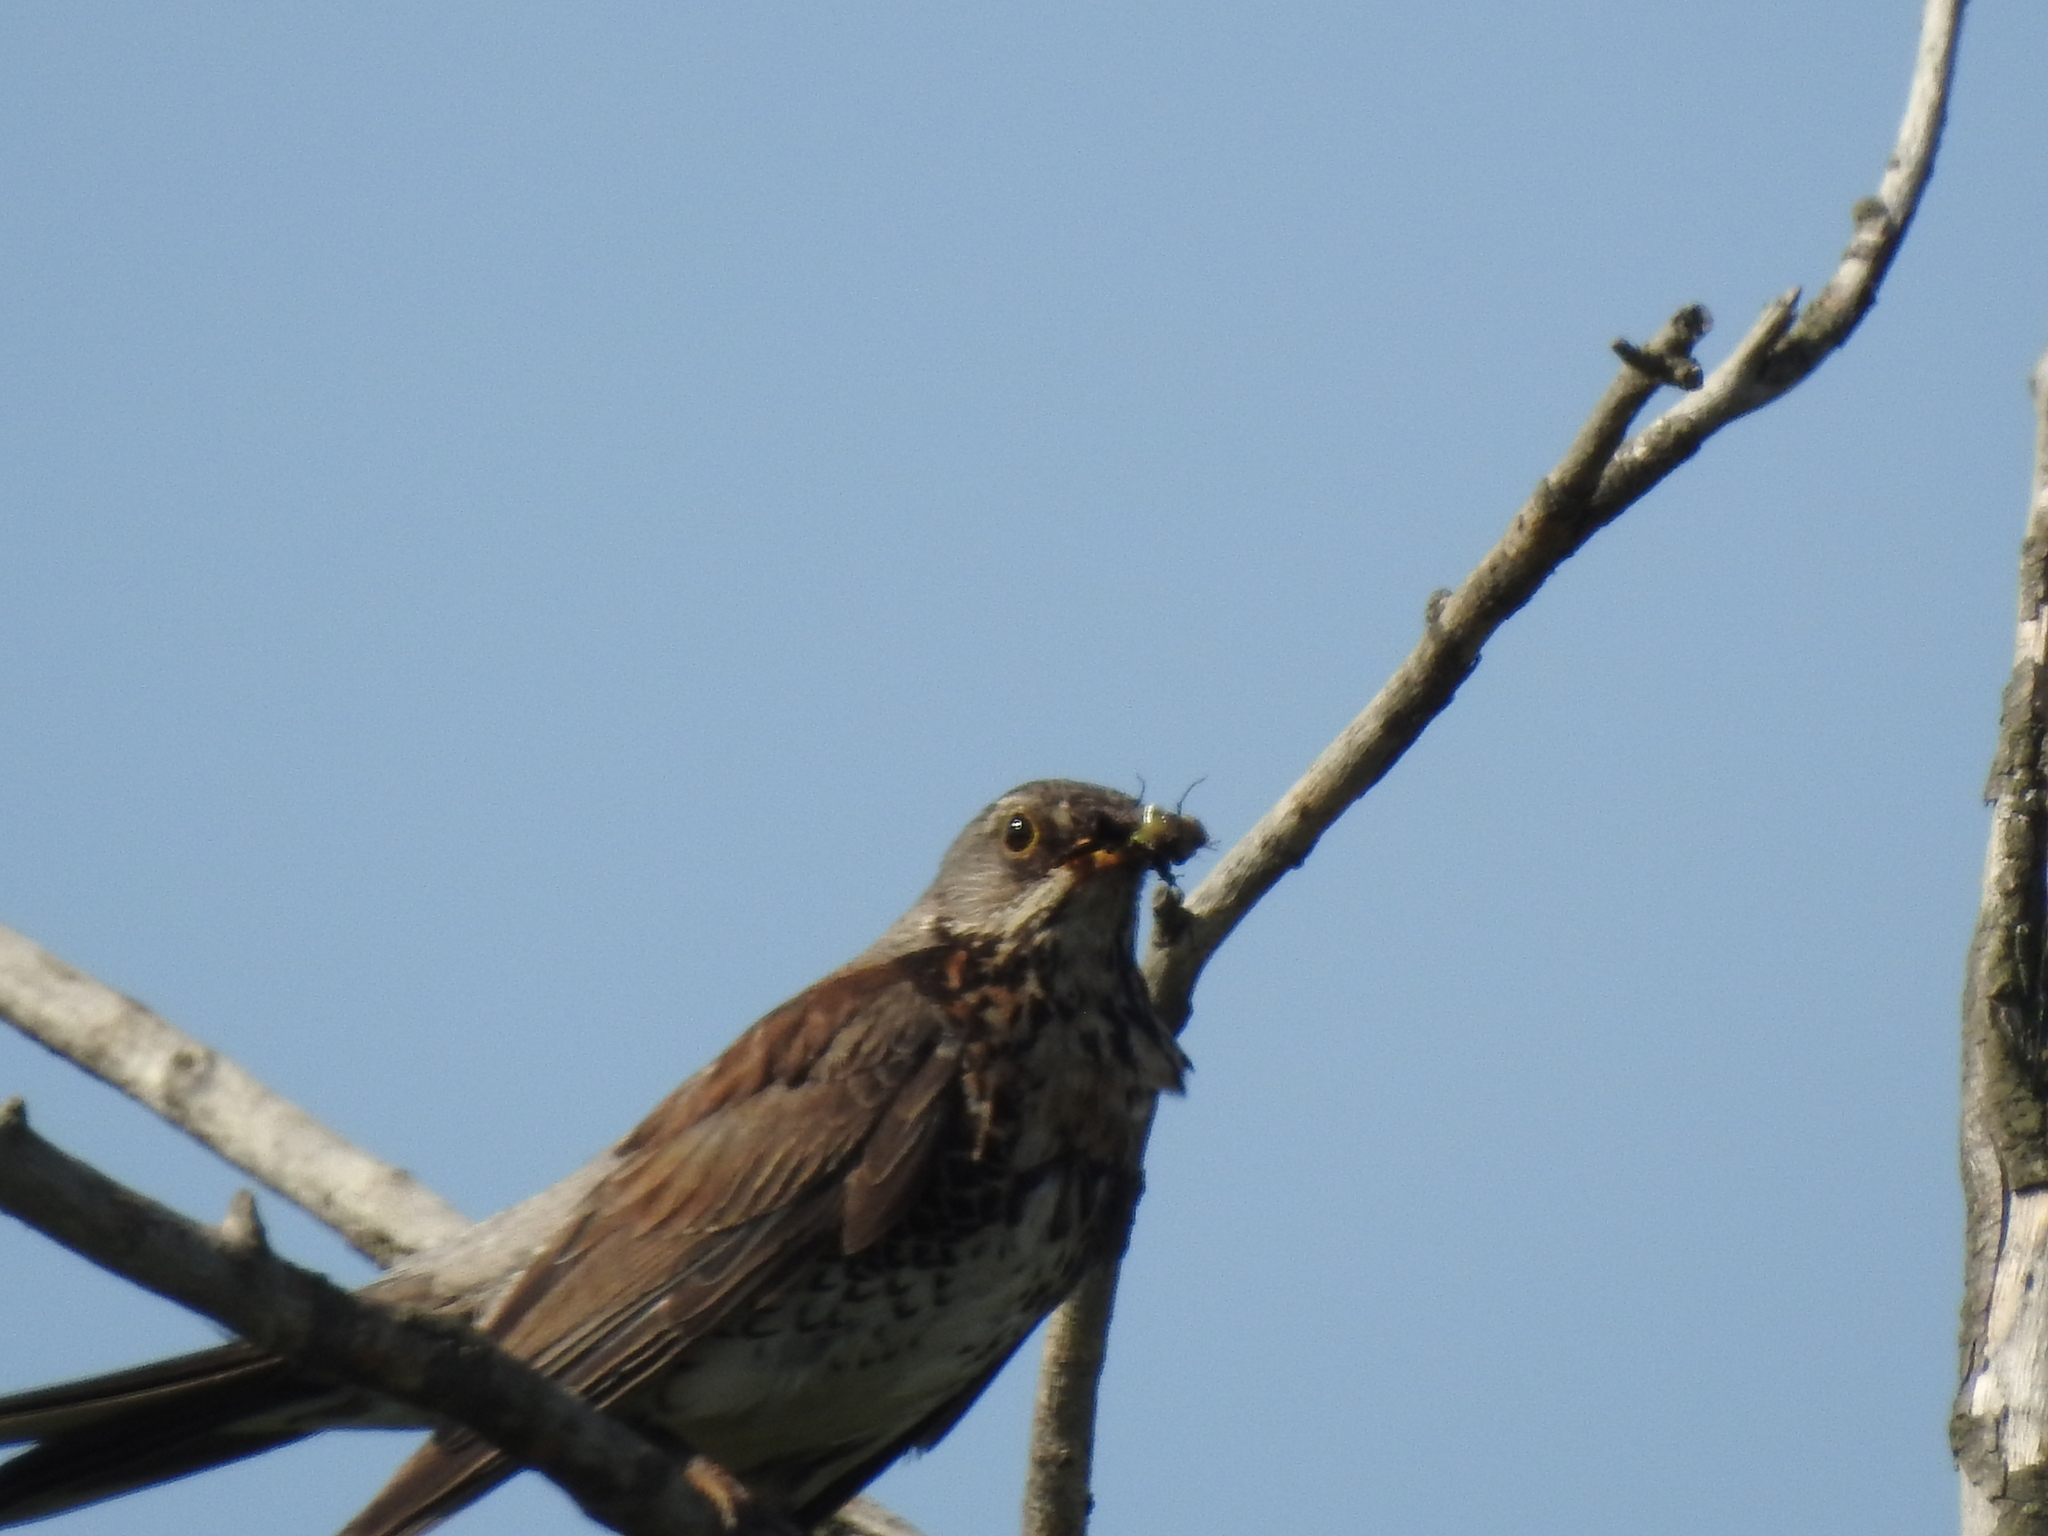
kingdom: Animalia
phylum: Chordata
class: Aves
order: Passeriformes
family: Turdidae
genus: Turdus
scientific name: Turdus pilaris
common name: Fieldfare
